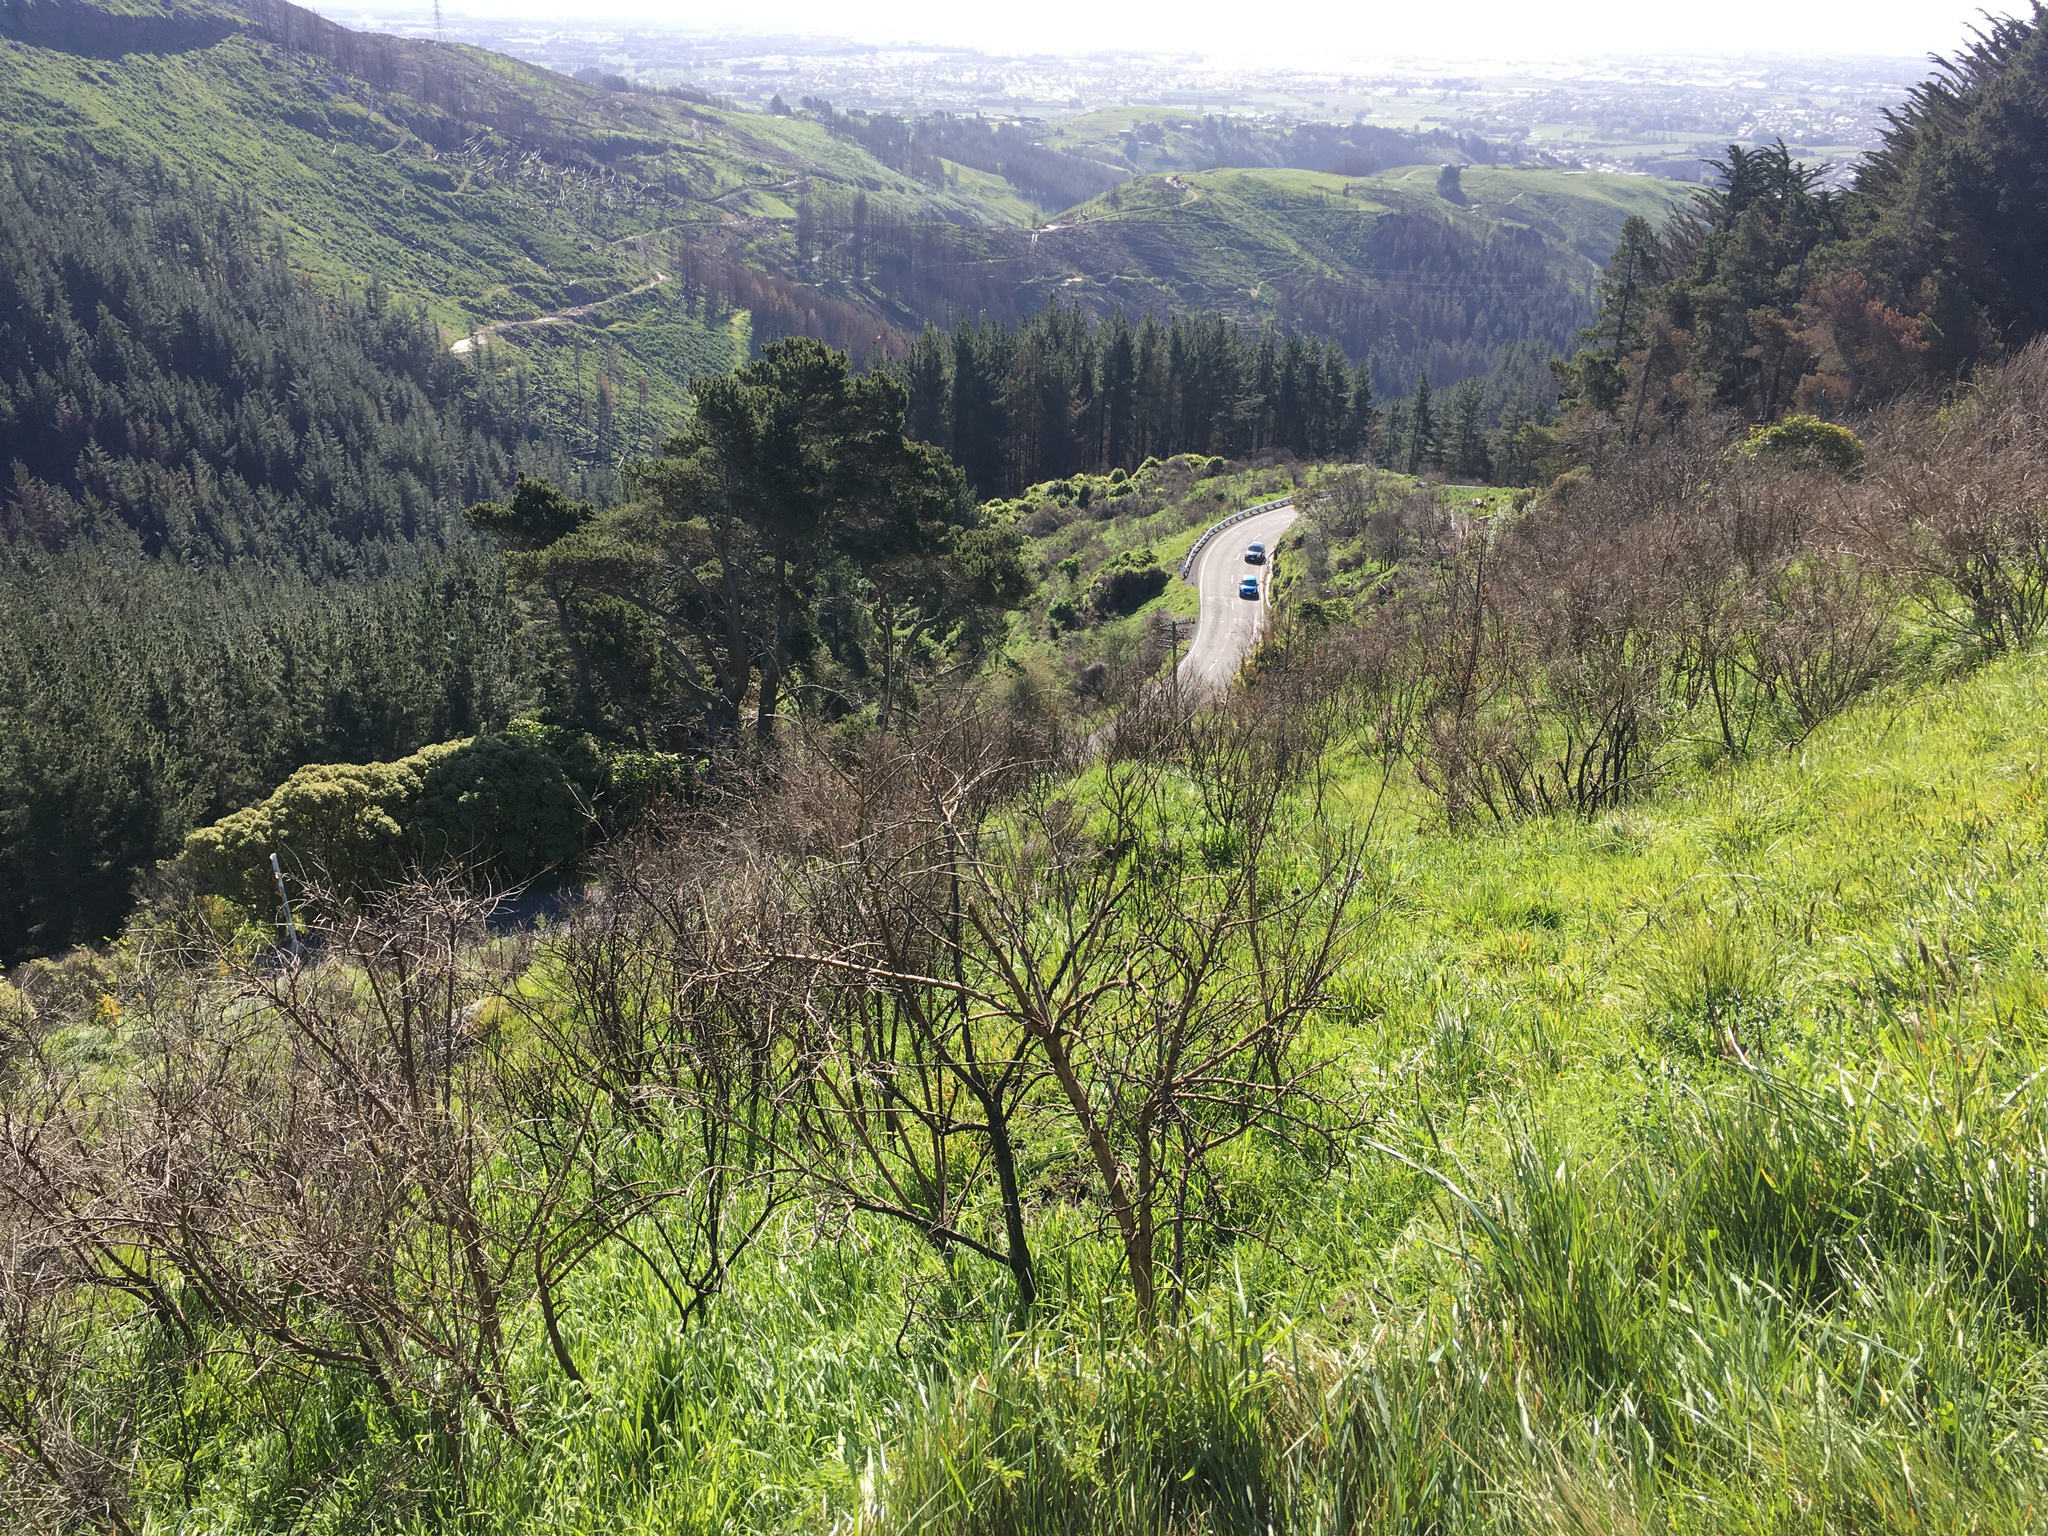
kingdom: Plantae
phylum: Tracheophyta
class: Magnoliopsida
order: Fabales
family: Fabaceae
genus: Cytisus
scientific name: Cytisus scoparius
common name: Scotch broom
